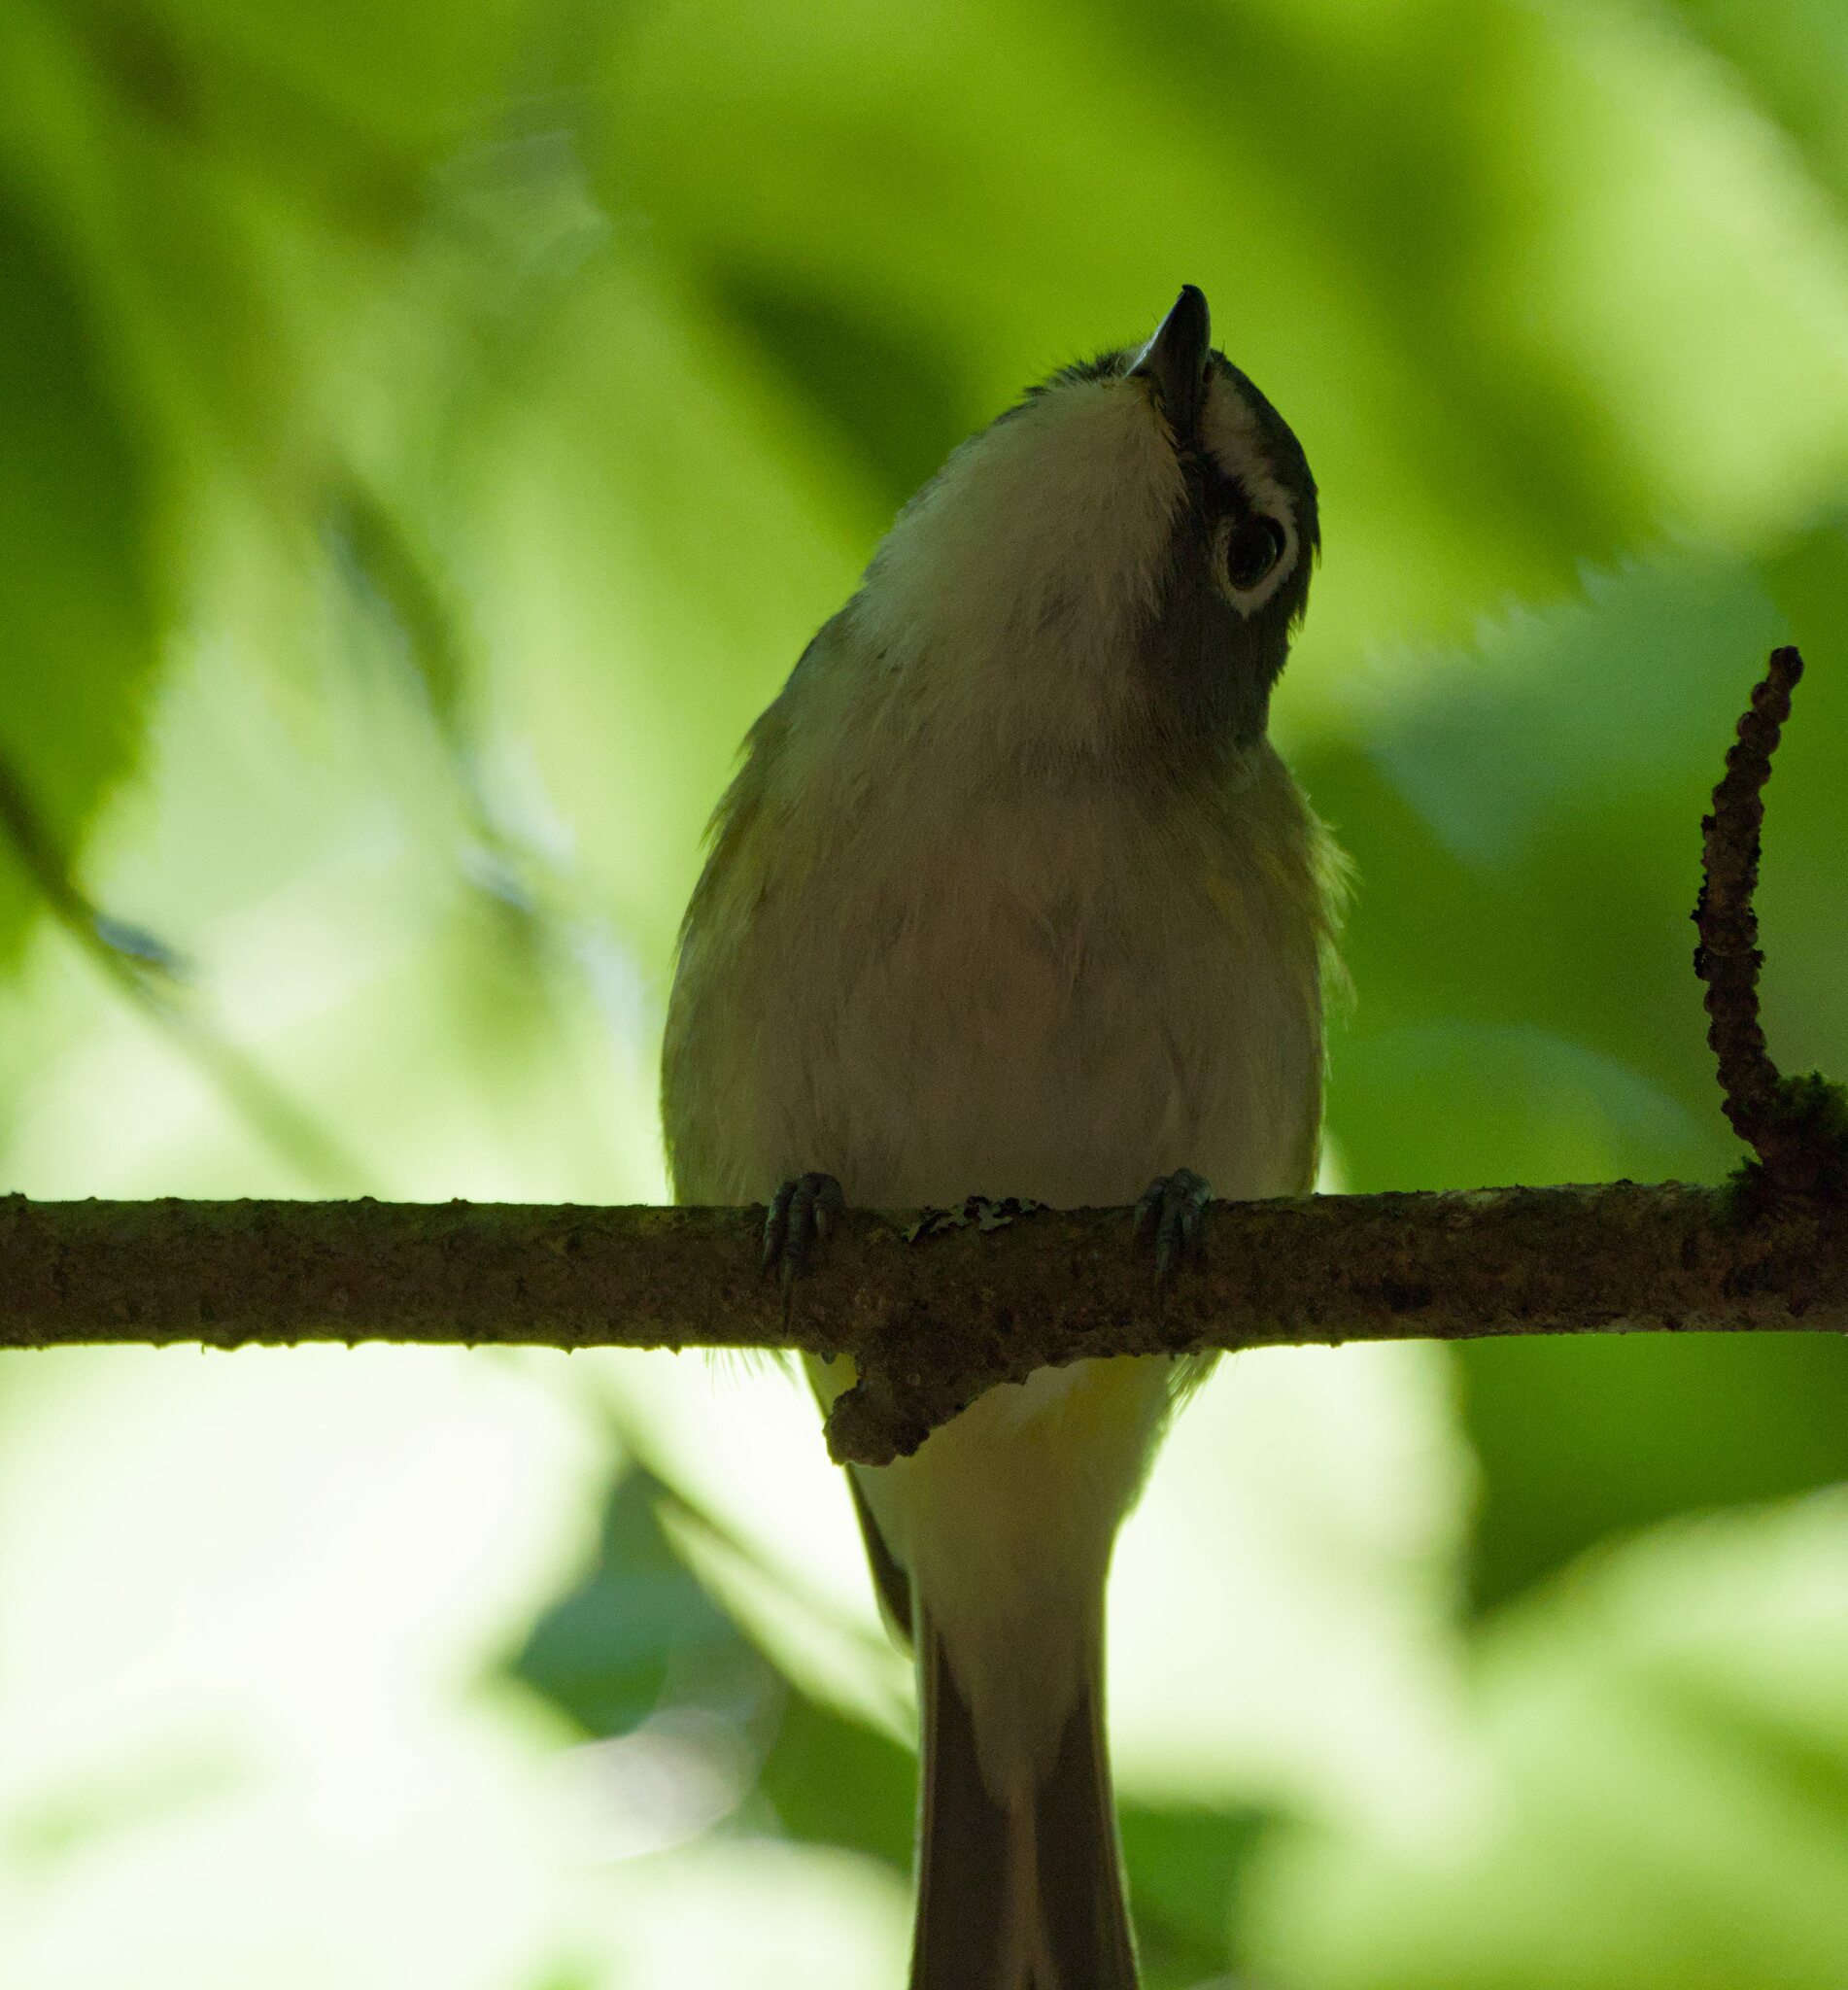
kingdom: Animalia
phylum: Chordata
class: Aves
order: Passeriformes
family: Vireonidae
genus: Vireo
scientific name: Vireo solitarius
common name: Blue-headed vireo
